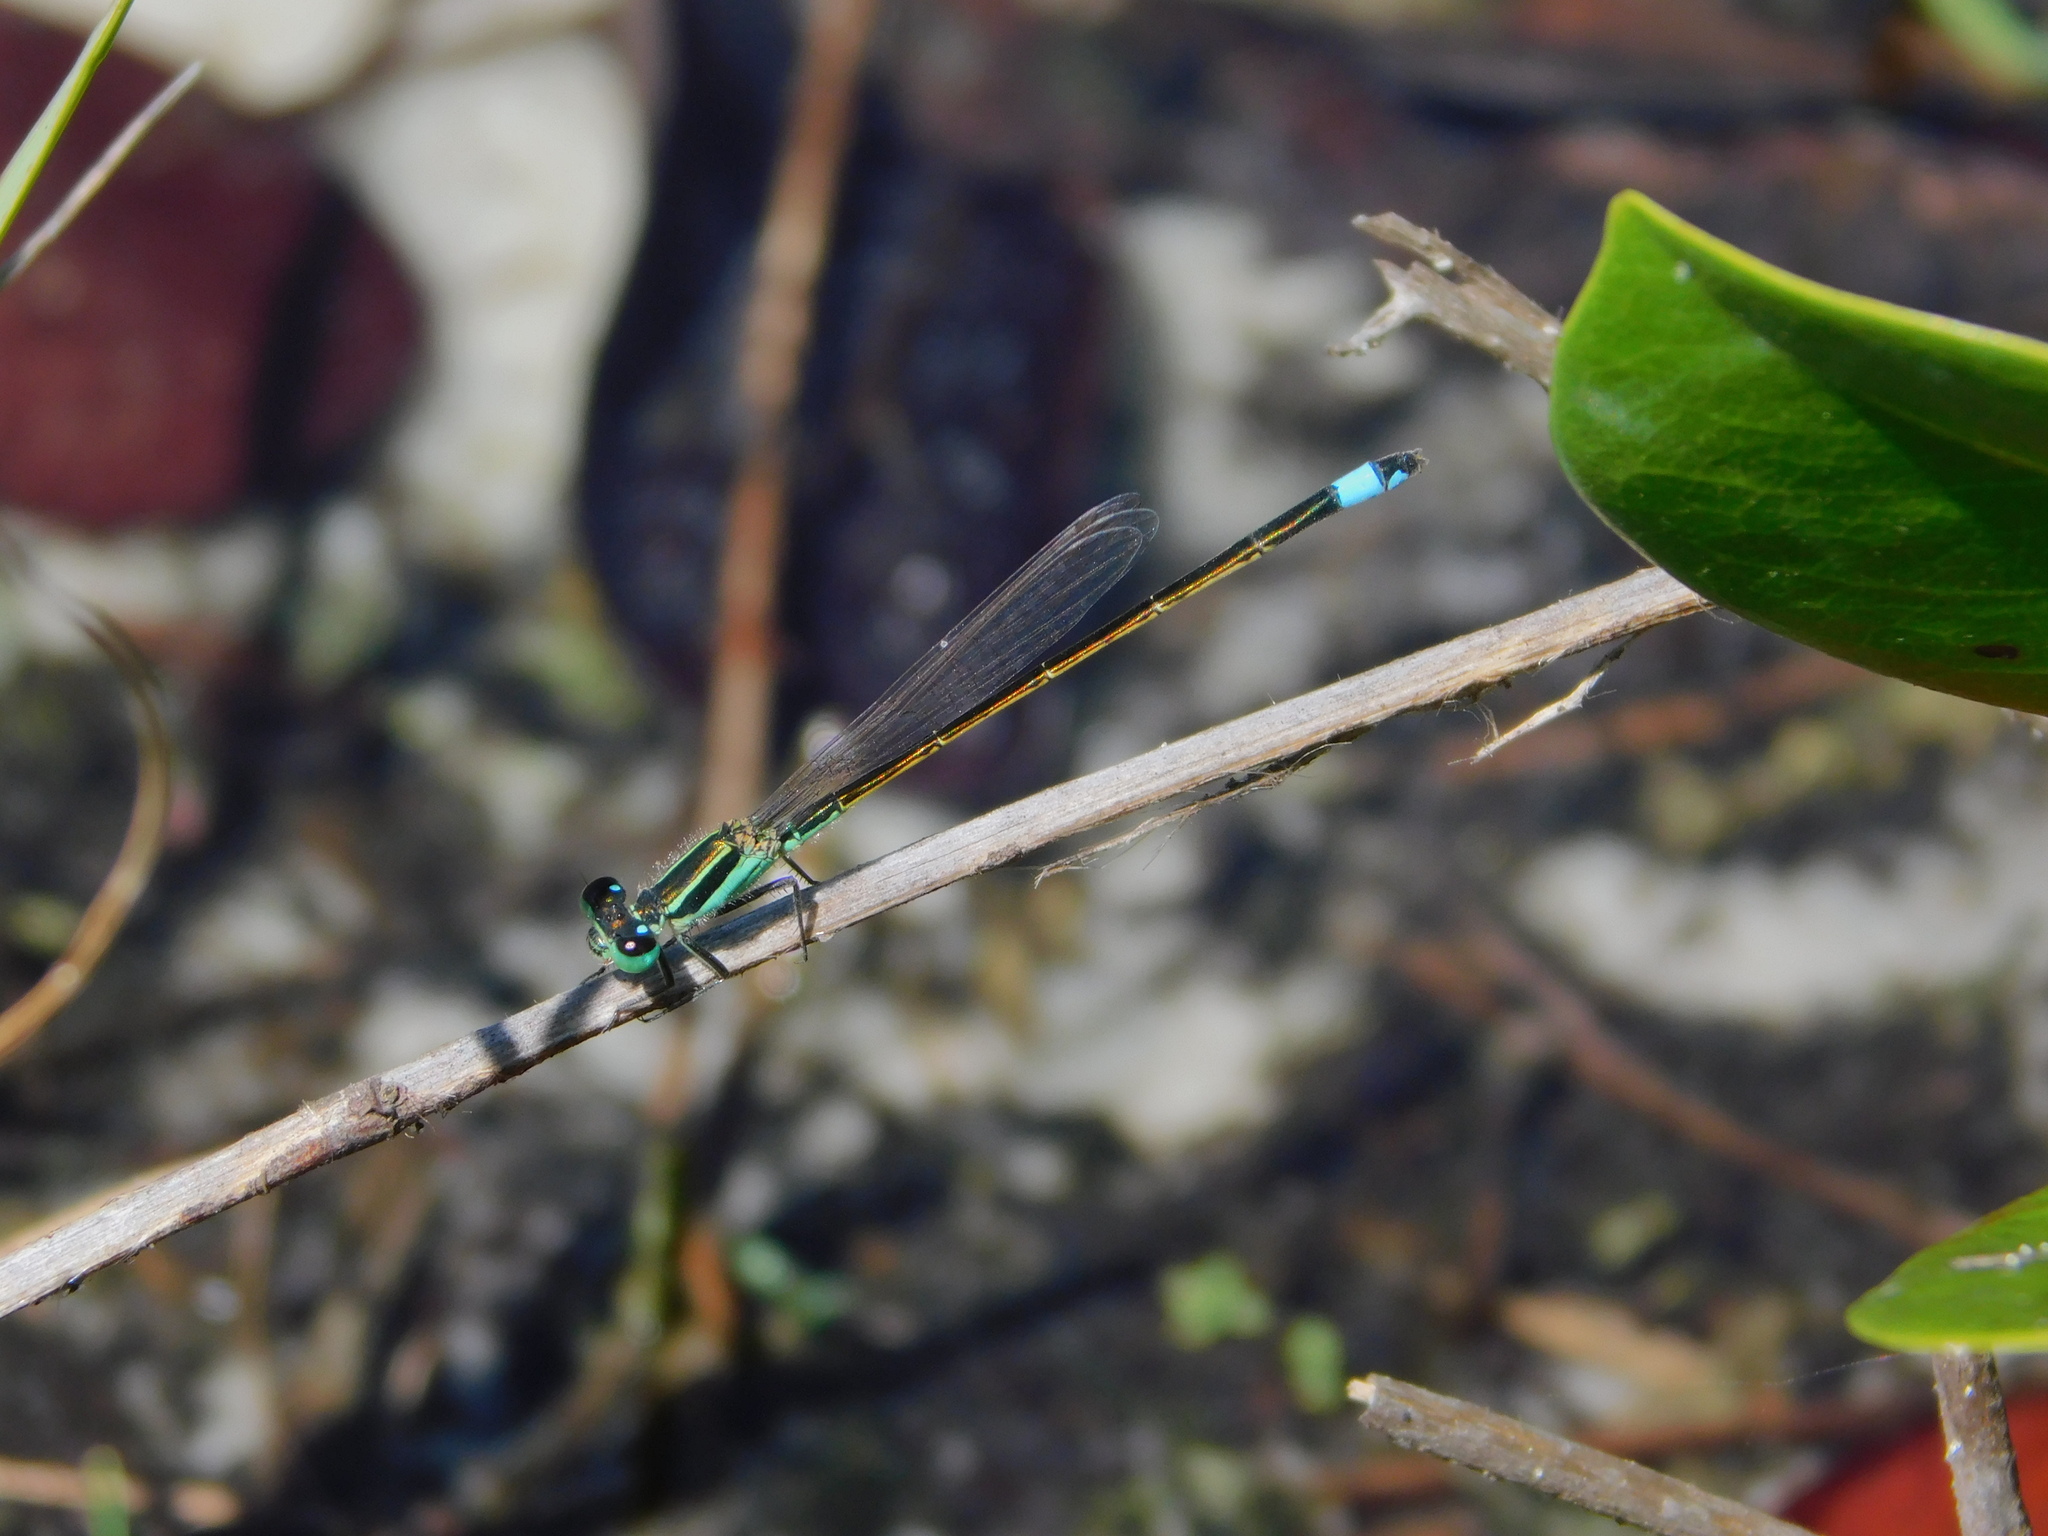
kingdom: Animalia
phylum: Arthropoda
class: Insecta
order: Odonata
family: Coenagrionidae
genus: Ischnura
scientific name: Ischnura ramburii
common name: Rambur's forktail
